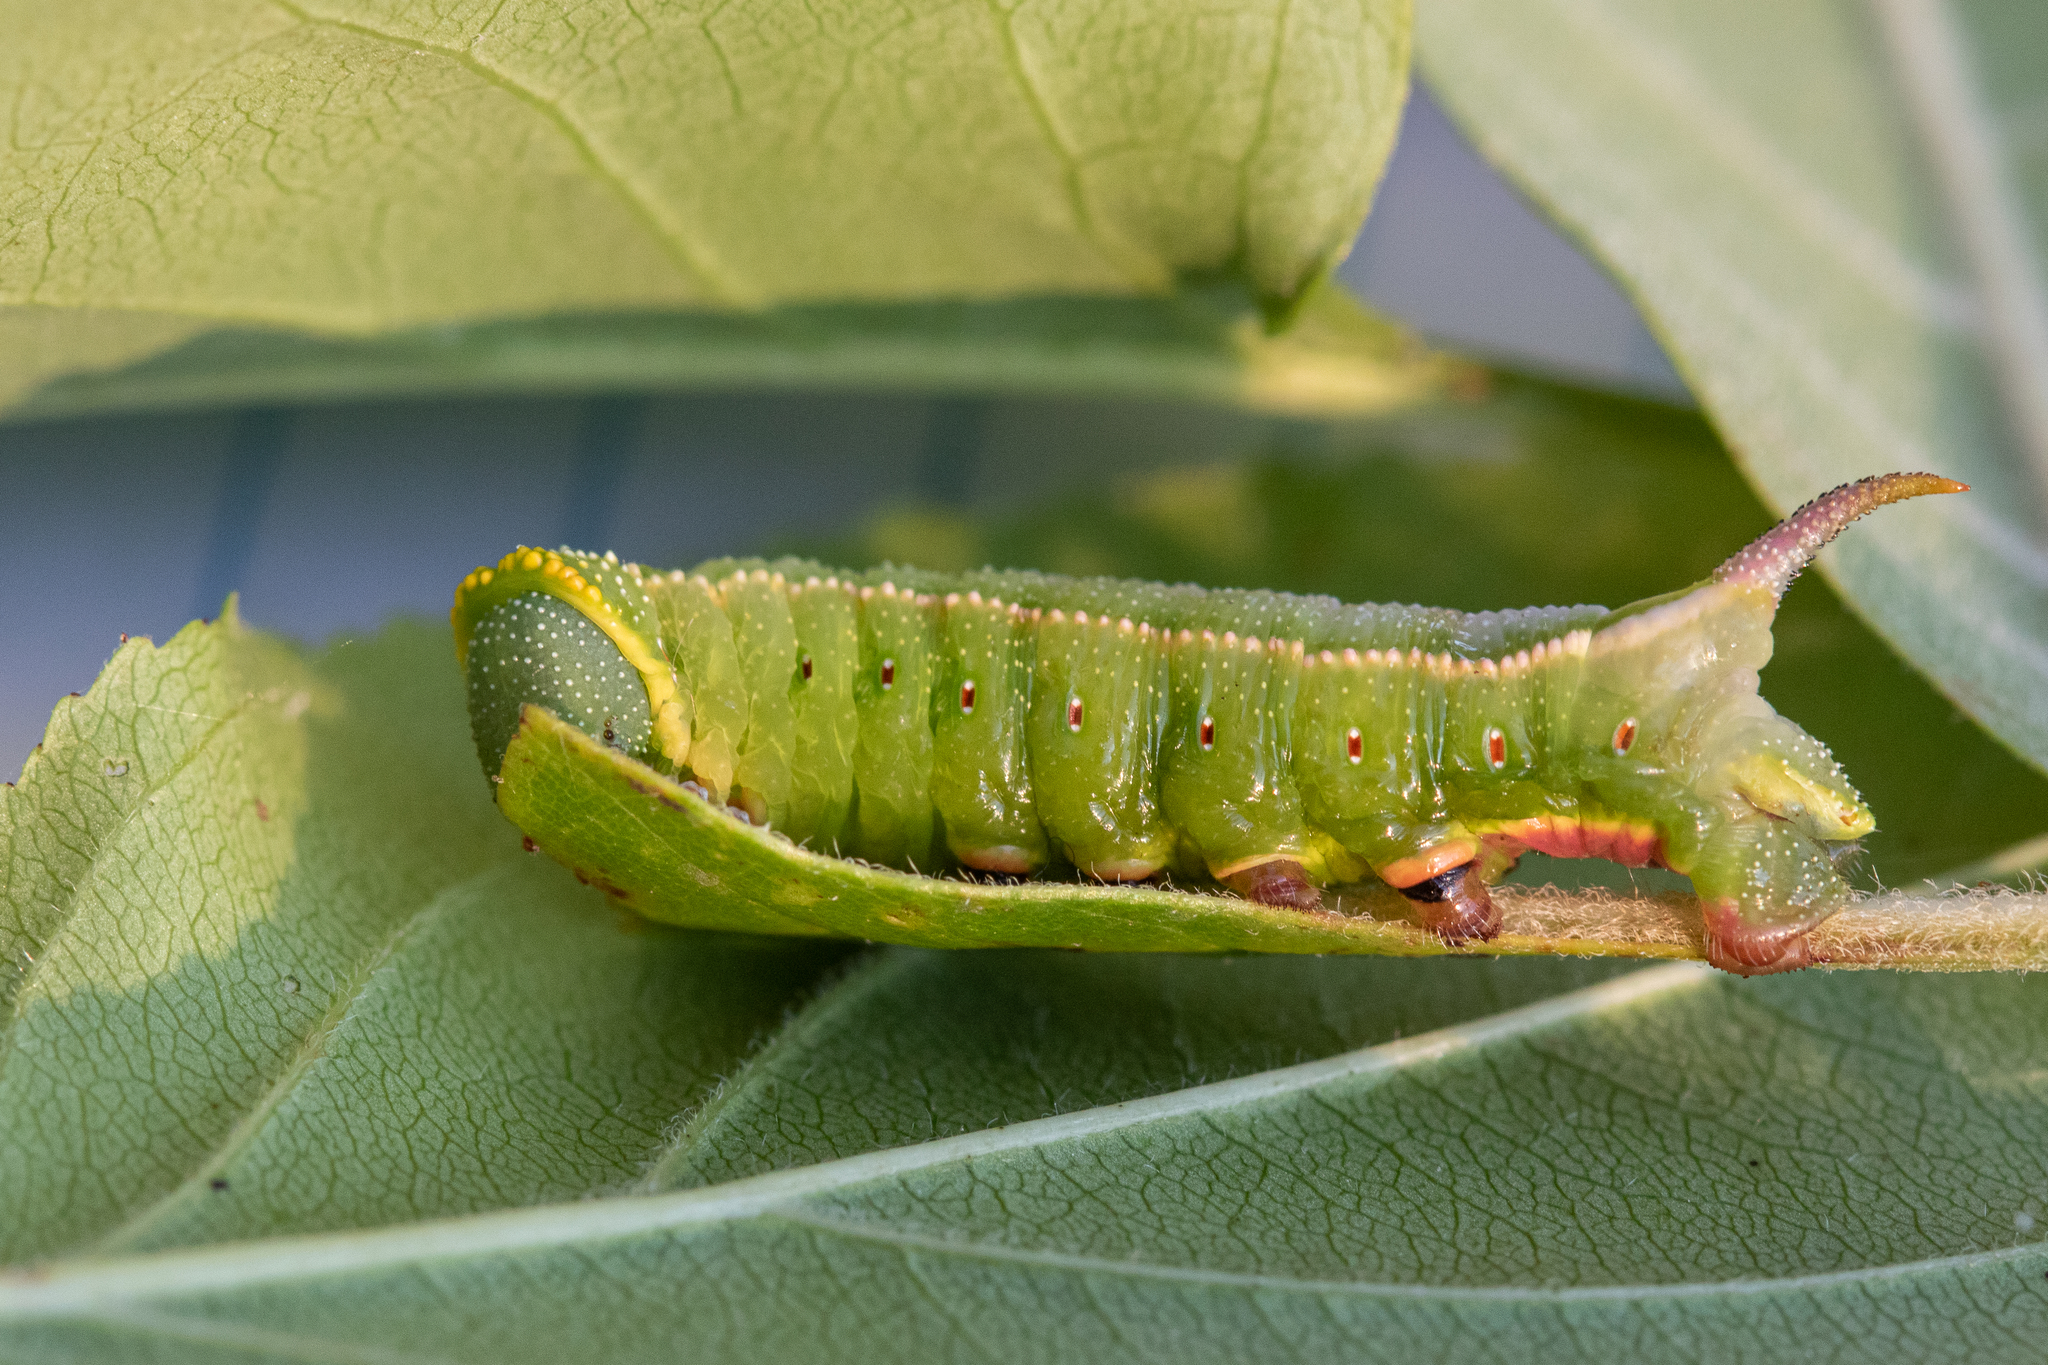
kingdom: Animalia
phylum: Arthropoda
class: Insecta
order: Lepidoptera
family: Sphingidae
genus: Hemaris
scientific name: Hemaris thysbe
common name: Common clear-wing
